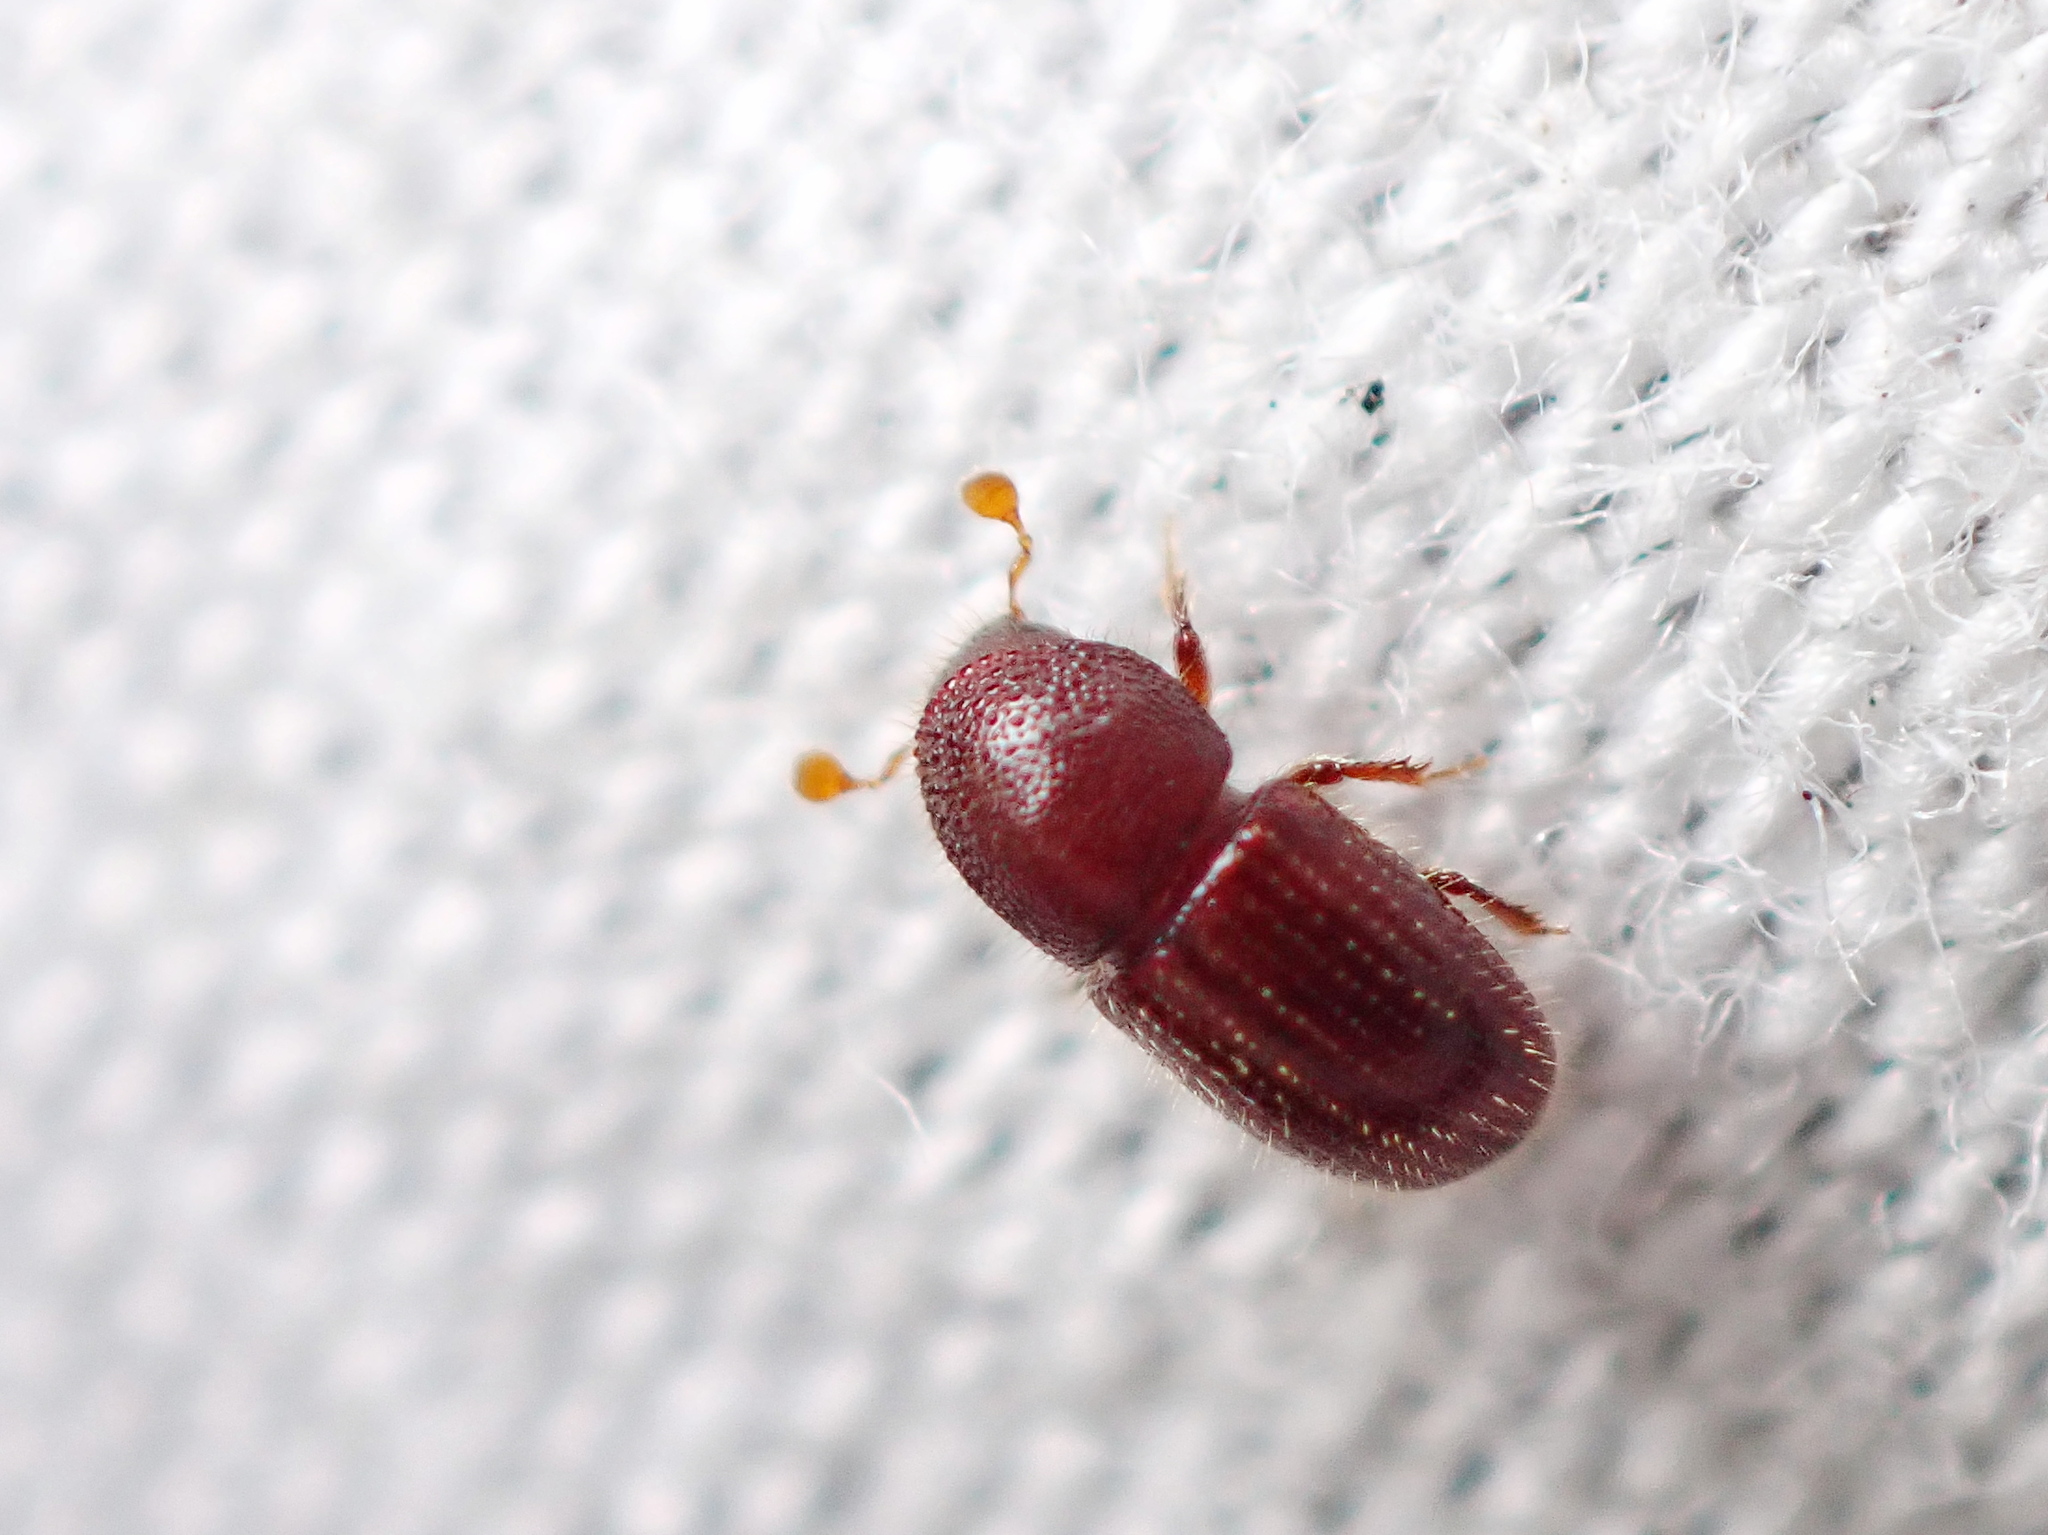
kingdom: Animalia
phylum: Arthropoda
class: Insecta
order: Coleoptera
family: Curculionidae
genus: Coccotrypes
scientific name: Coccotrypes dactyliperda
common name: Bark beetle
